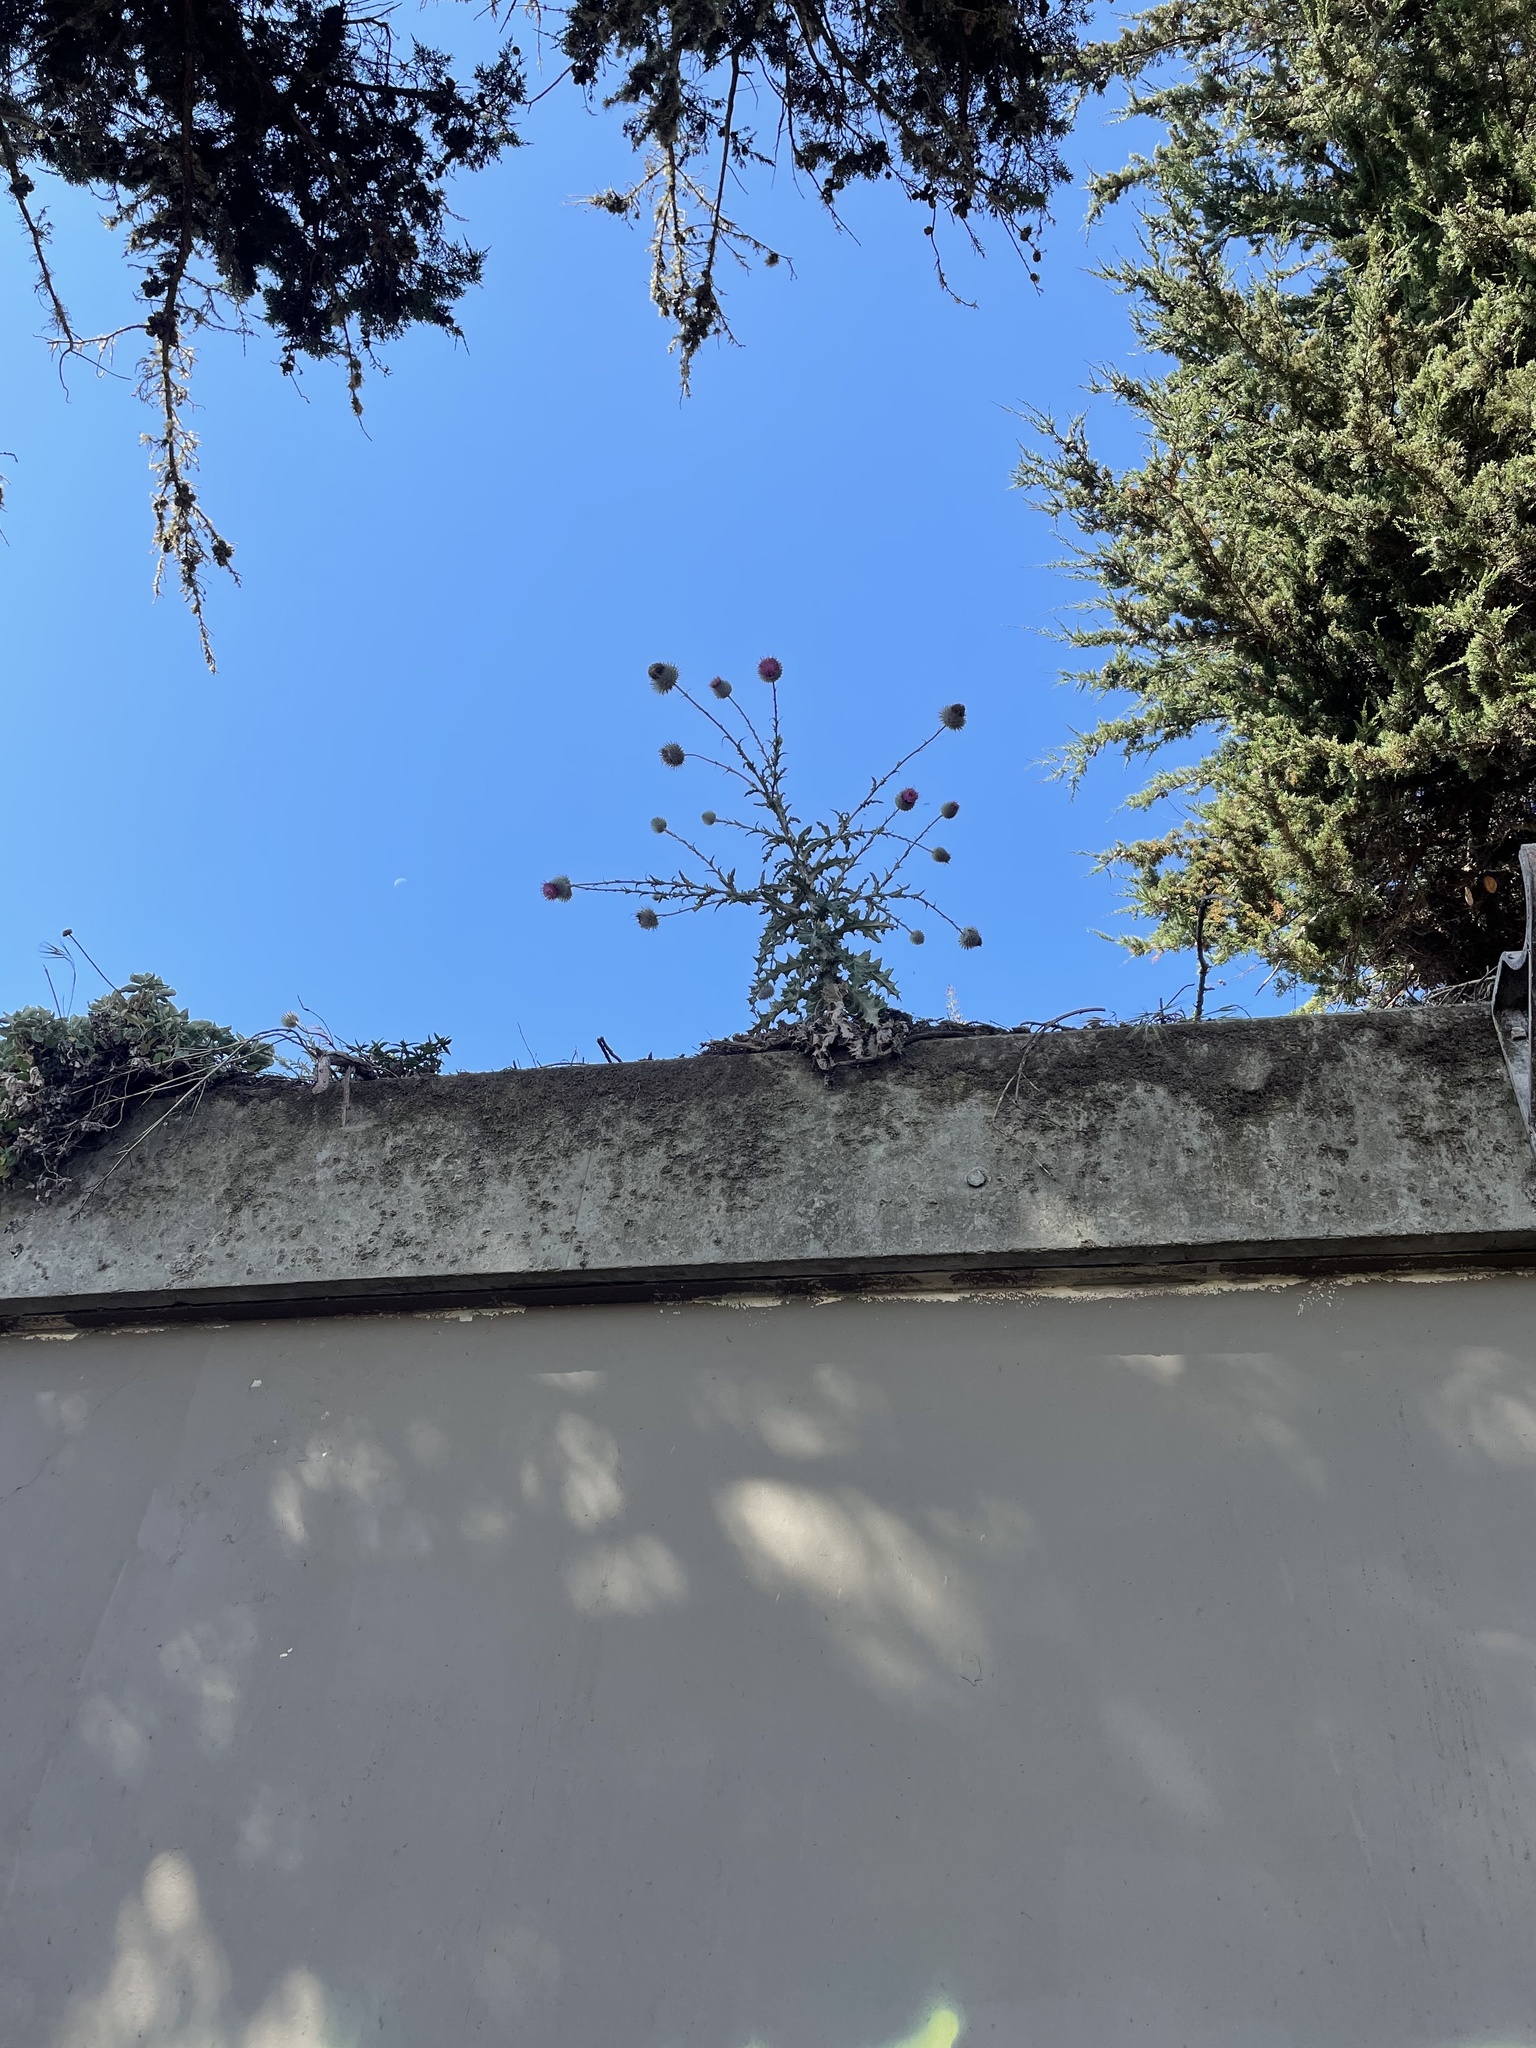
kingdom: Plantae
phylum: Tracheophyta
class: Magnoliopsida
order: Asterales
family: Asteraceae
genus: Cirsium
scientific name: Cirsium occidentale
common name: Western thistle
